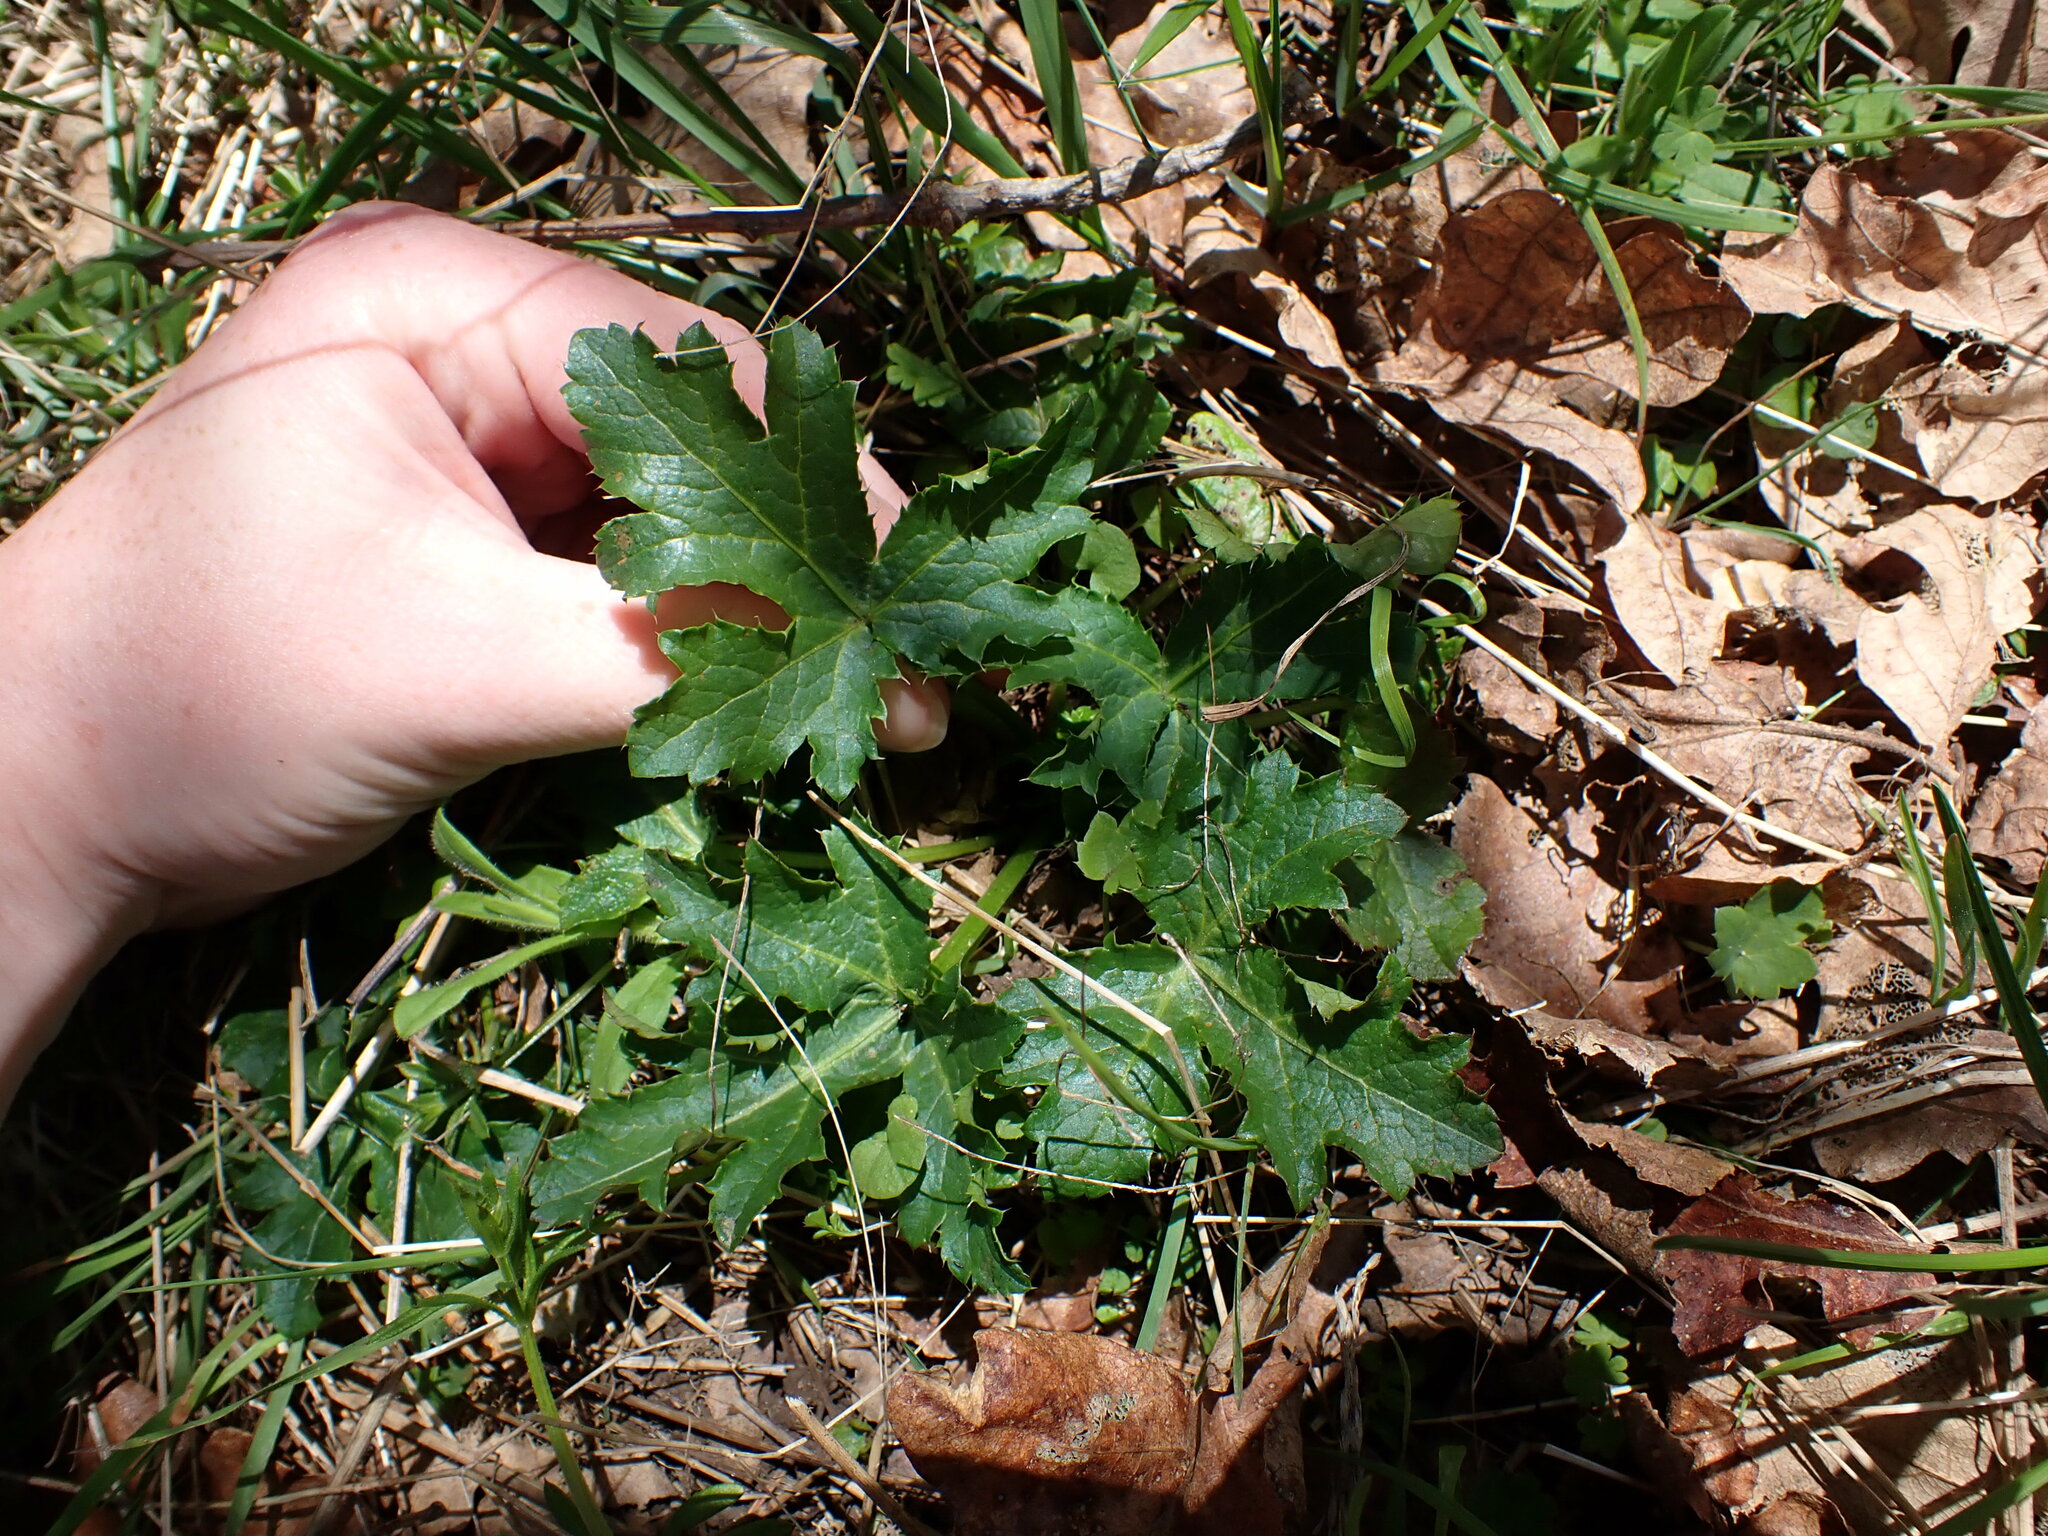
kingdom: Plantae
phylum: Tracheophyta
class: Magnoliopsida
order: Apiales
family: Apiaceae
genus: Sanicula
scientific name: Sanicula crassicaulis
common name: Western snakeroot
